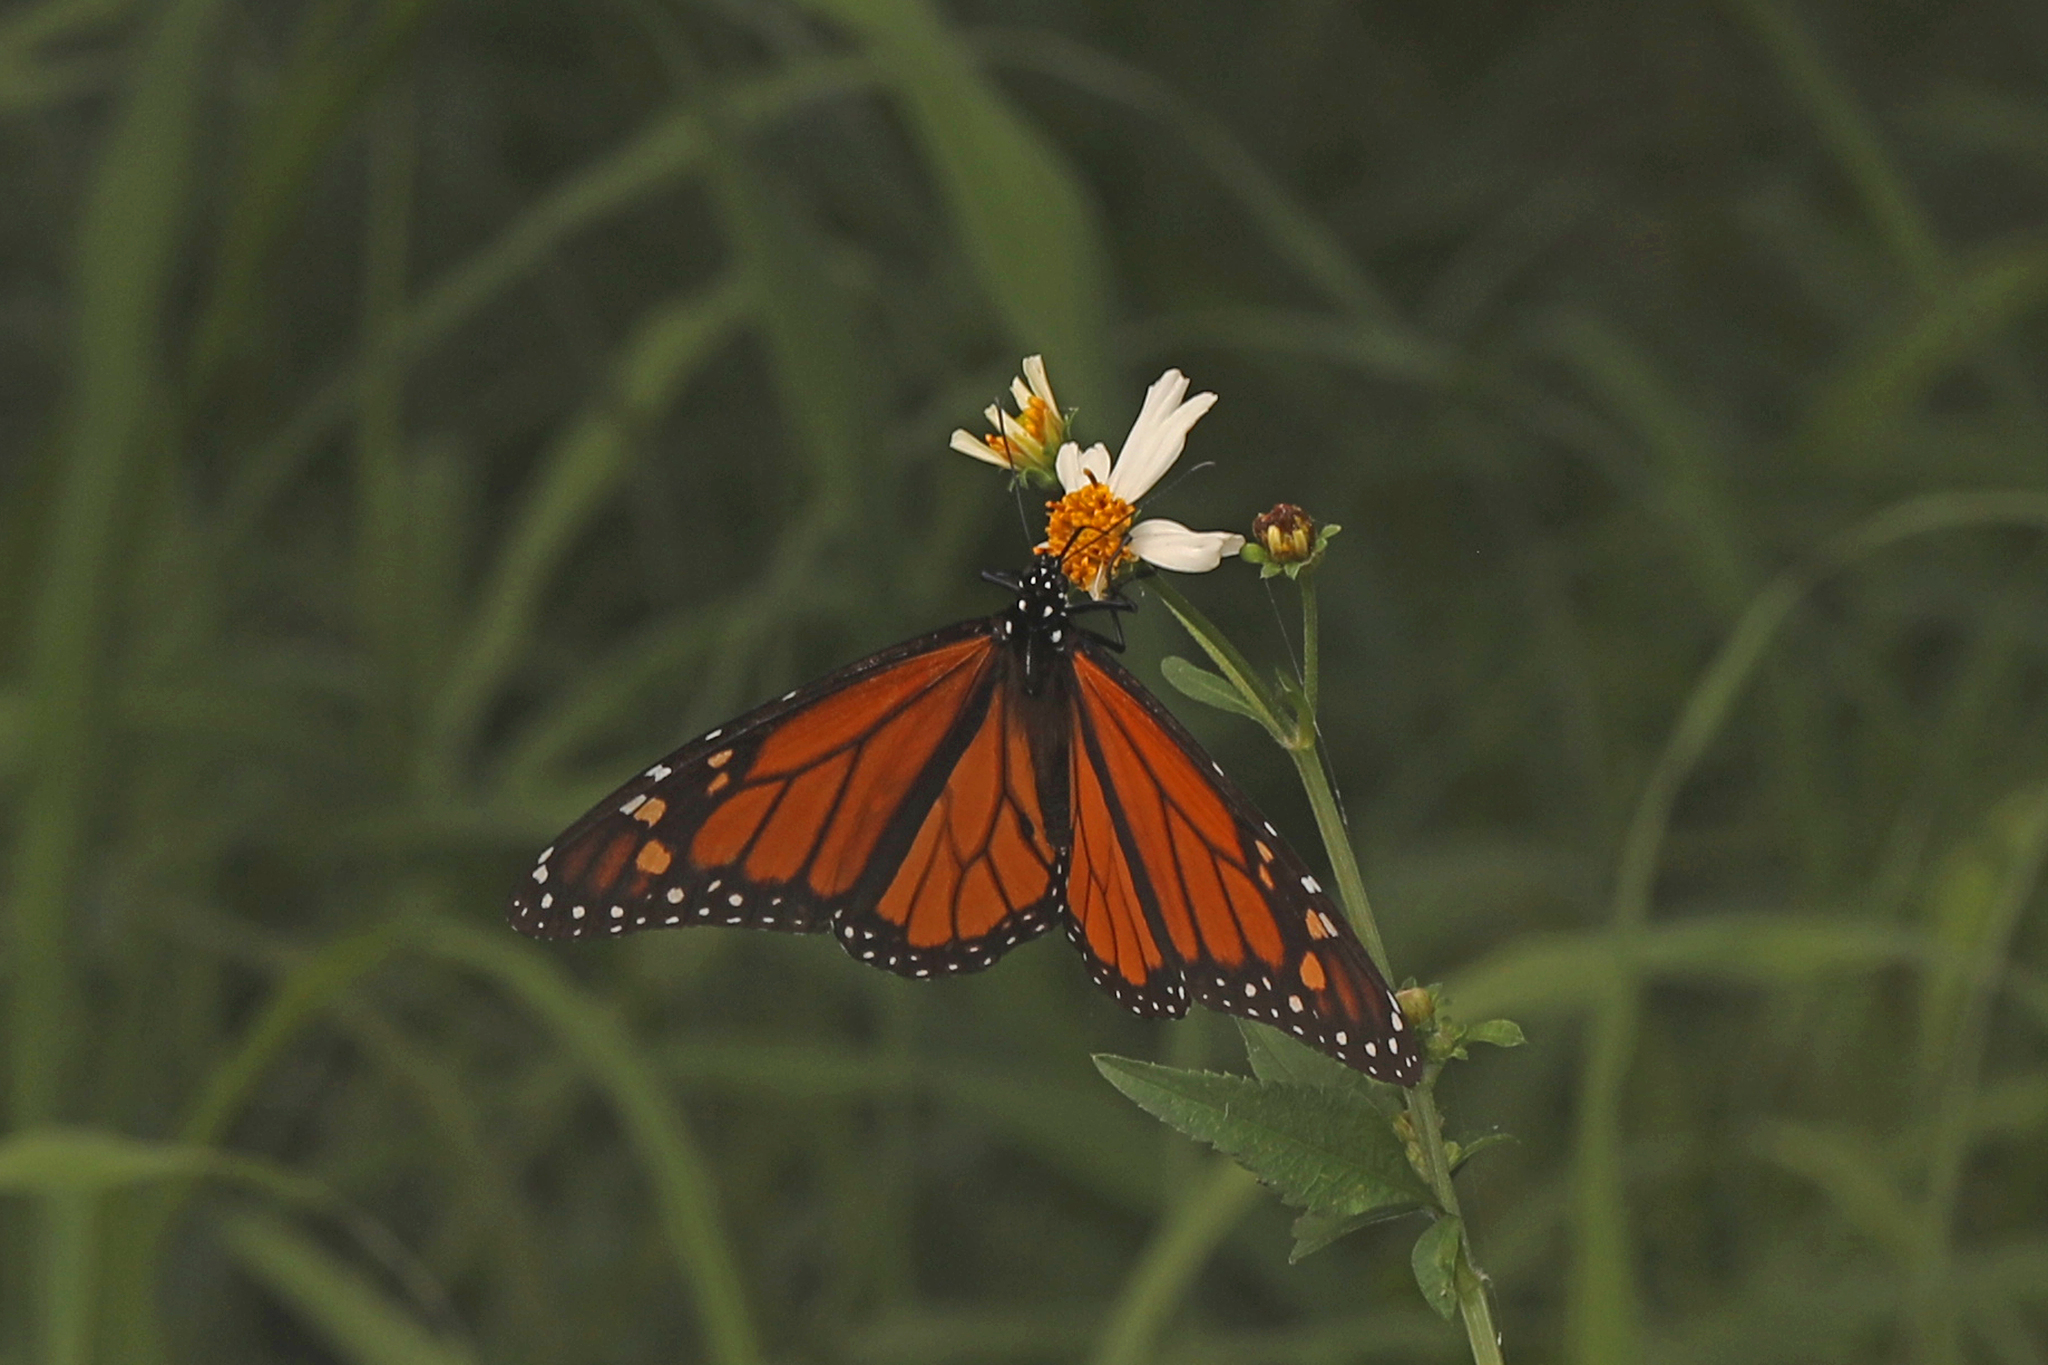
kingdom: Animalia
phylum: Arthropoda
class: Insecta
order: Lepidoptera
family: Nymphalidae
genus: Danaus
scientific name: Danaus plexippus
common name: Monarch
